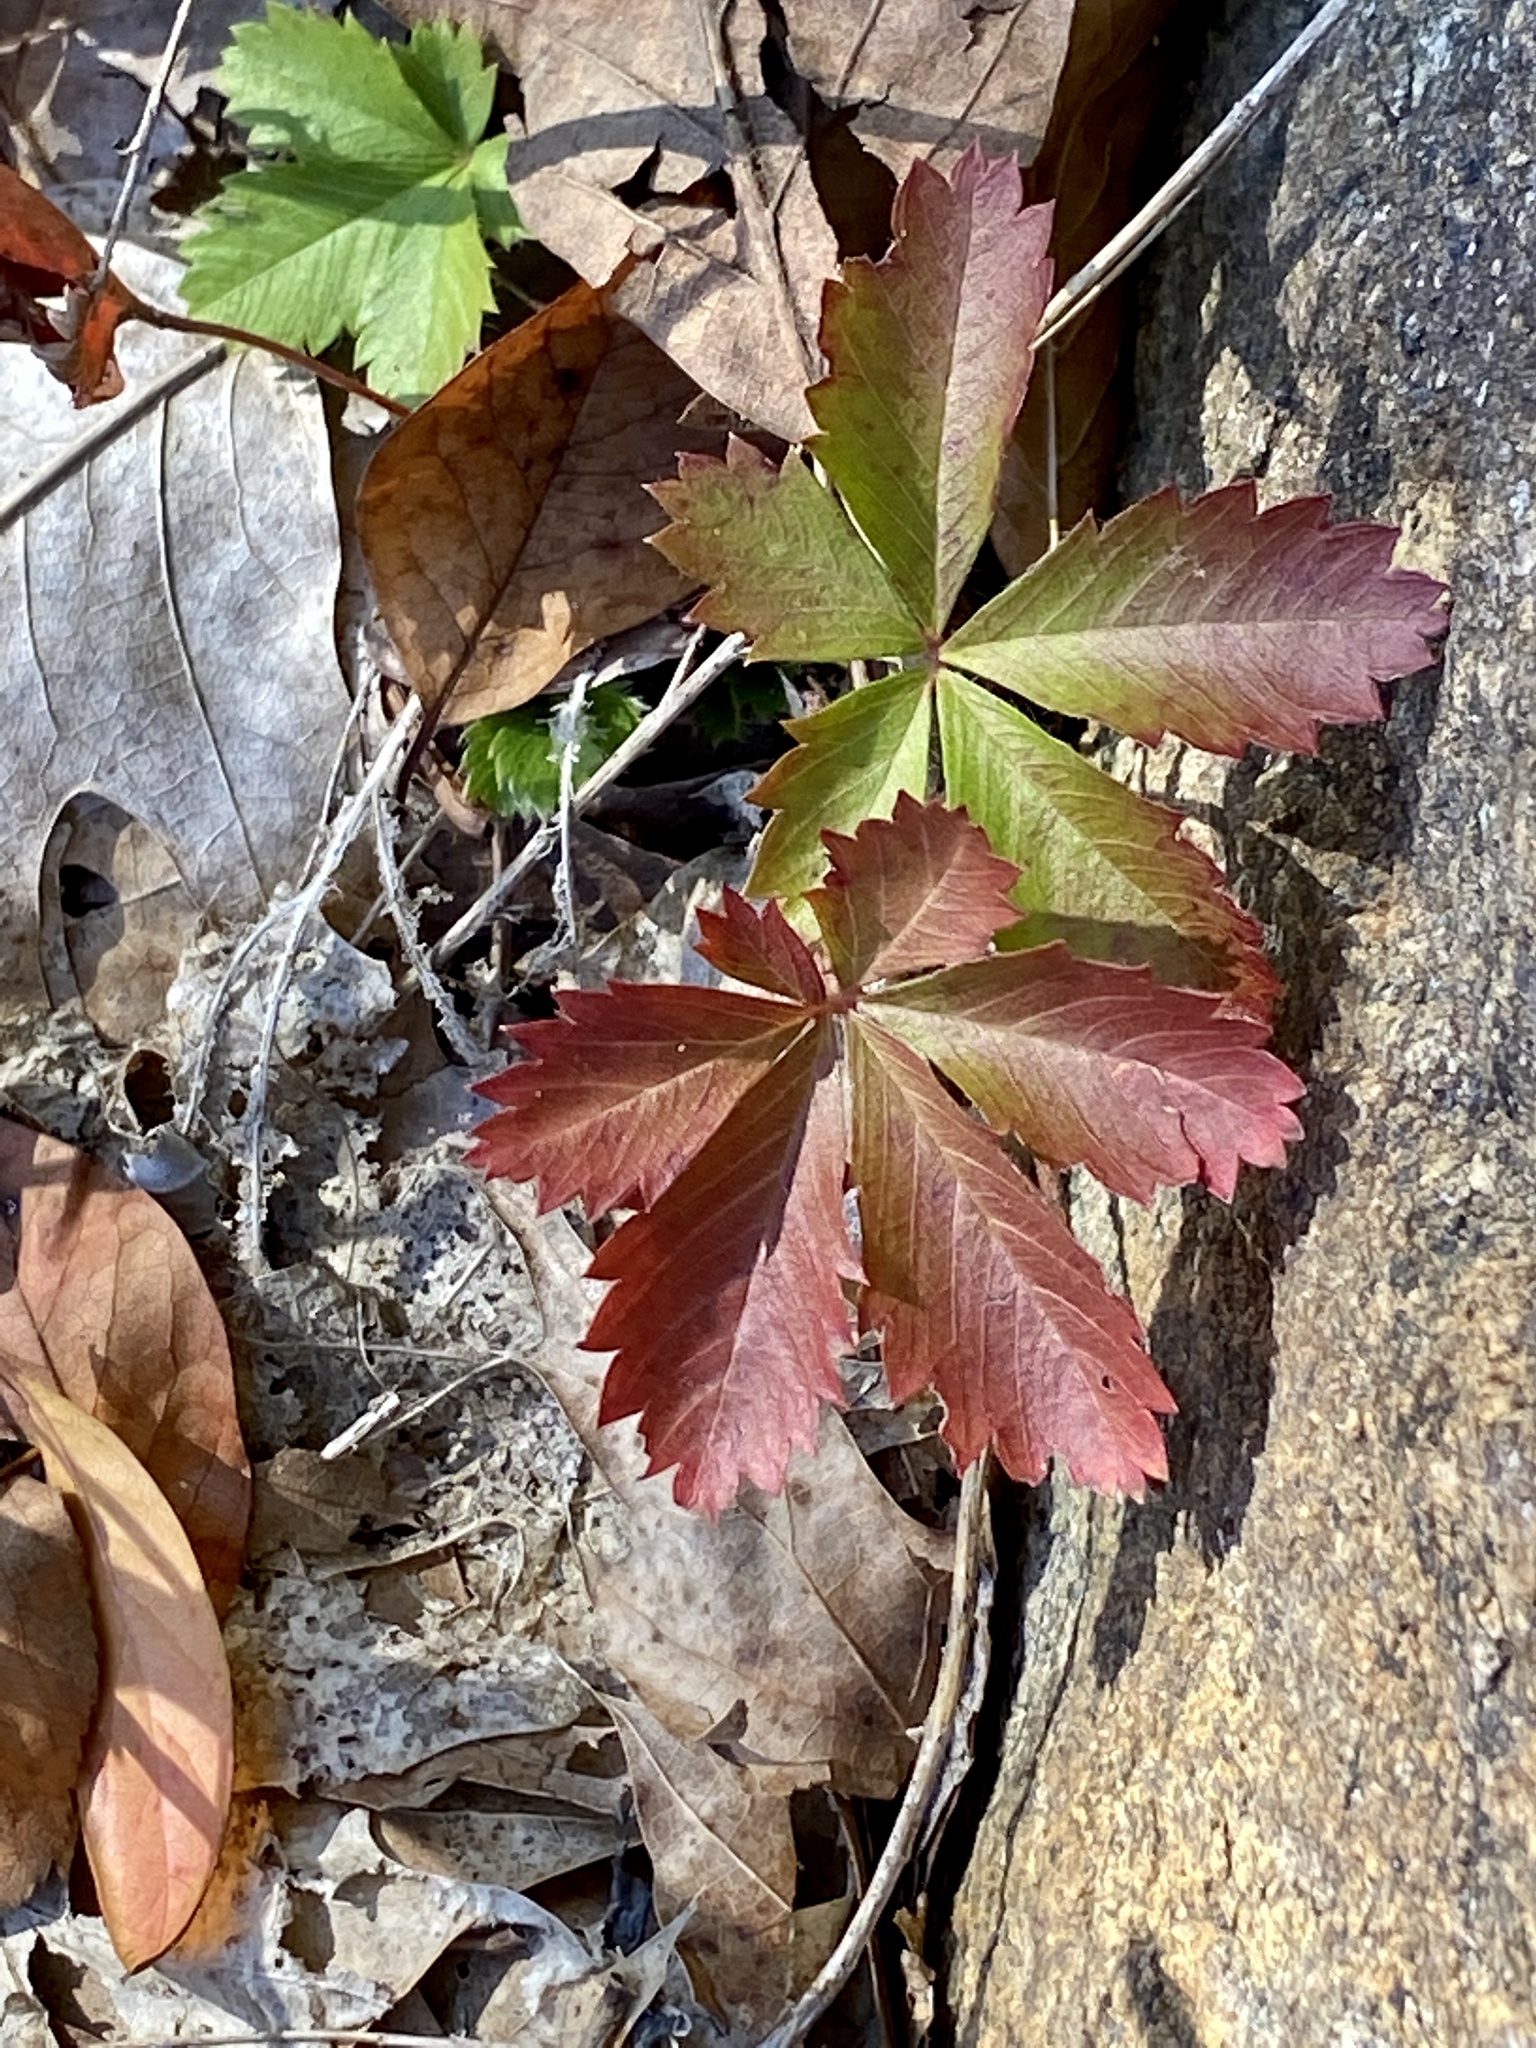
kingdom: Plantae
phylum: Tracheophyta
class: Magnoliopsida
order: Rosales
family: Rosaceae
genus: Potentilla
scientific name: Potentilla canadensis
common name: Canada cinquefoil
